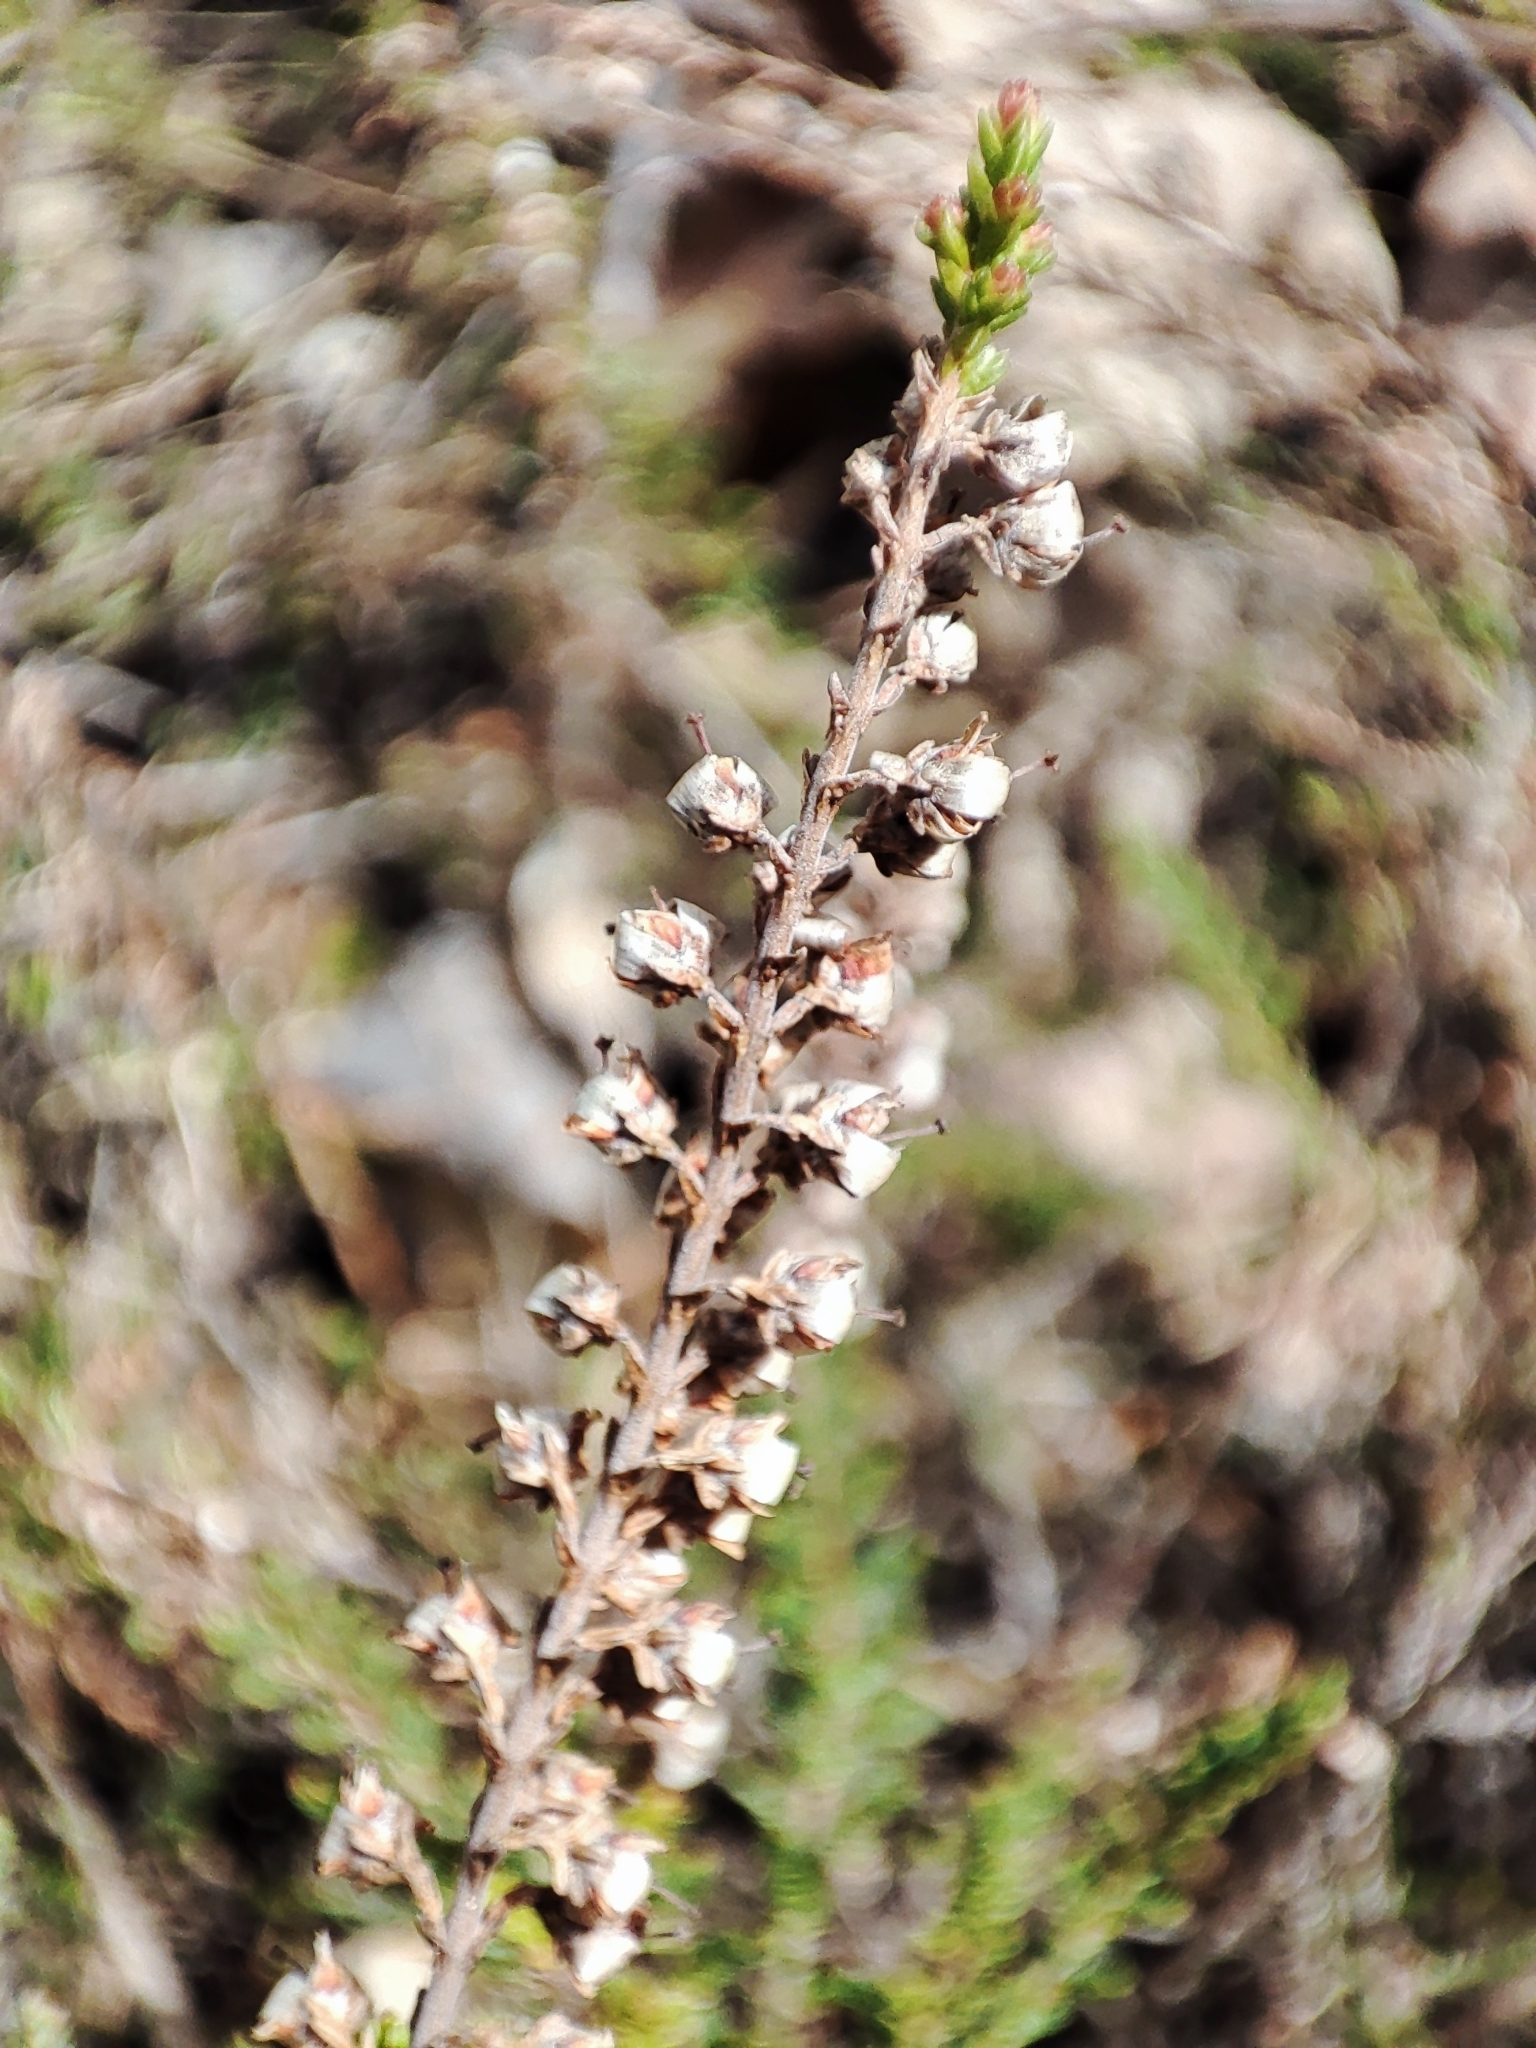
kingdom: Plantae
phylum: Tracheophyta
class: Magnoliopsida
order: Ericales
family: Ericaceae
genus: Calluna
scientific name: Calluna vulgaris
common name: Heather
